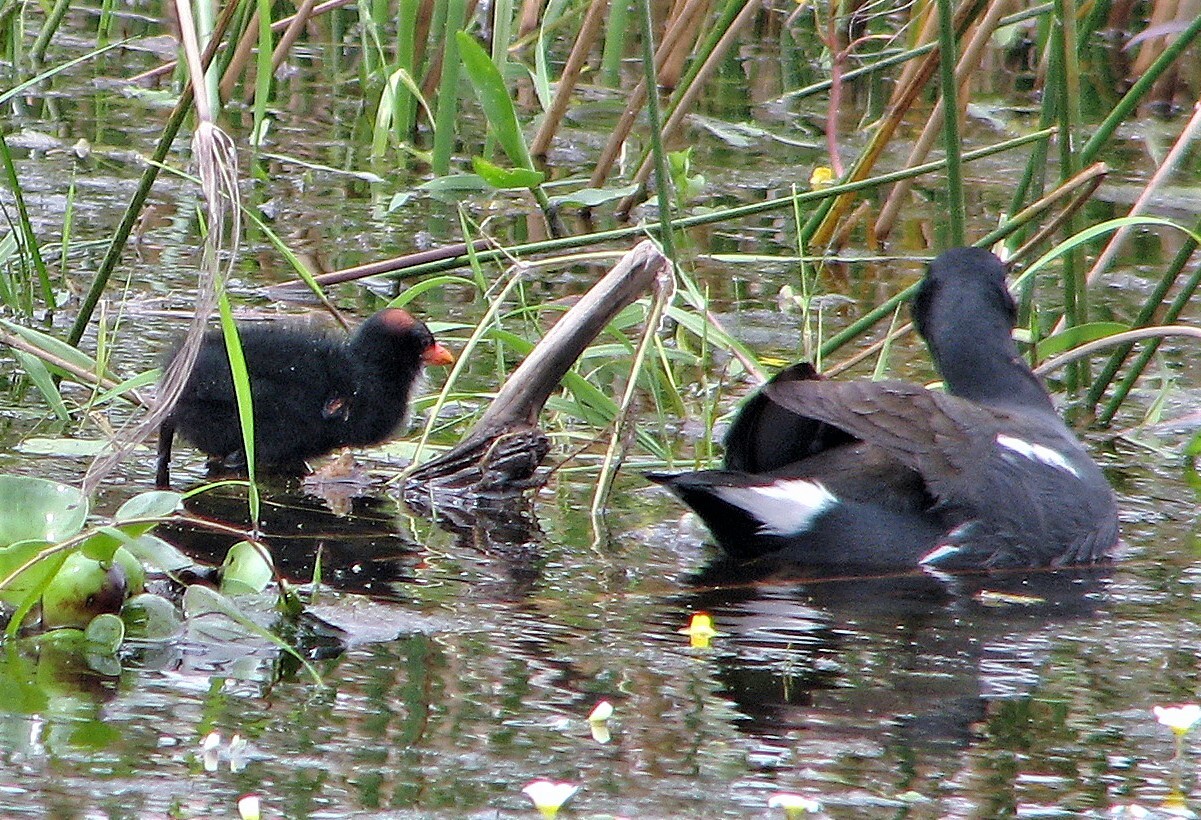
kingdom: Animalia
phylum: Chordata
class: Aves
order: Gruiformes
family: Rallidae
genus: Gallinula
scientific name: Gallinula chloropus
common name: Common moorhen
